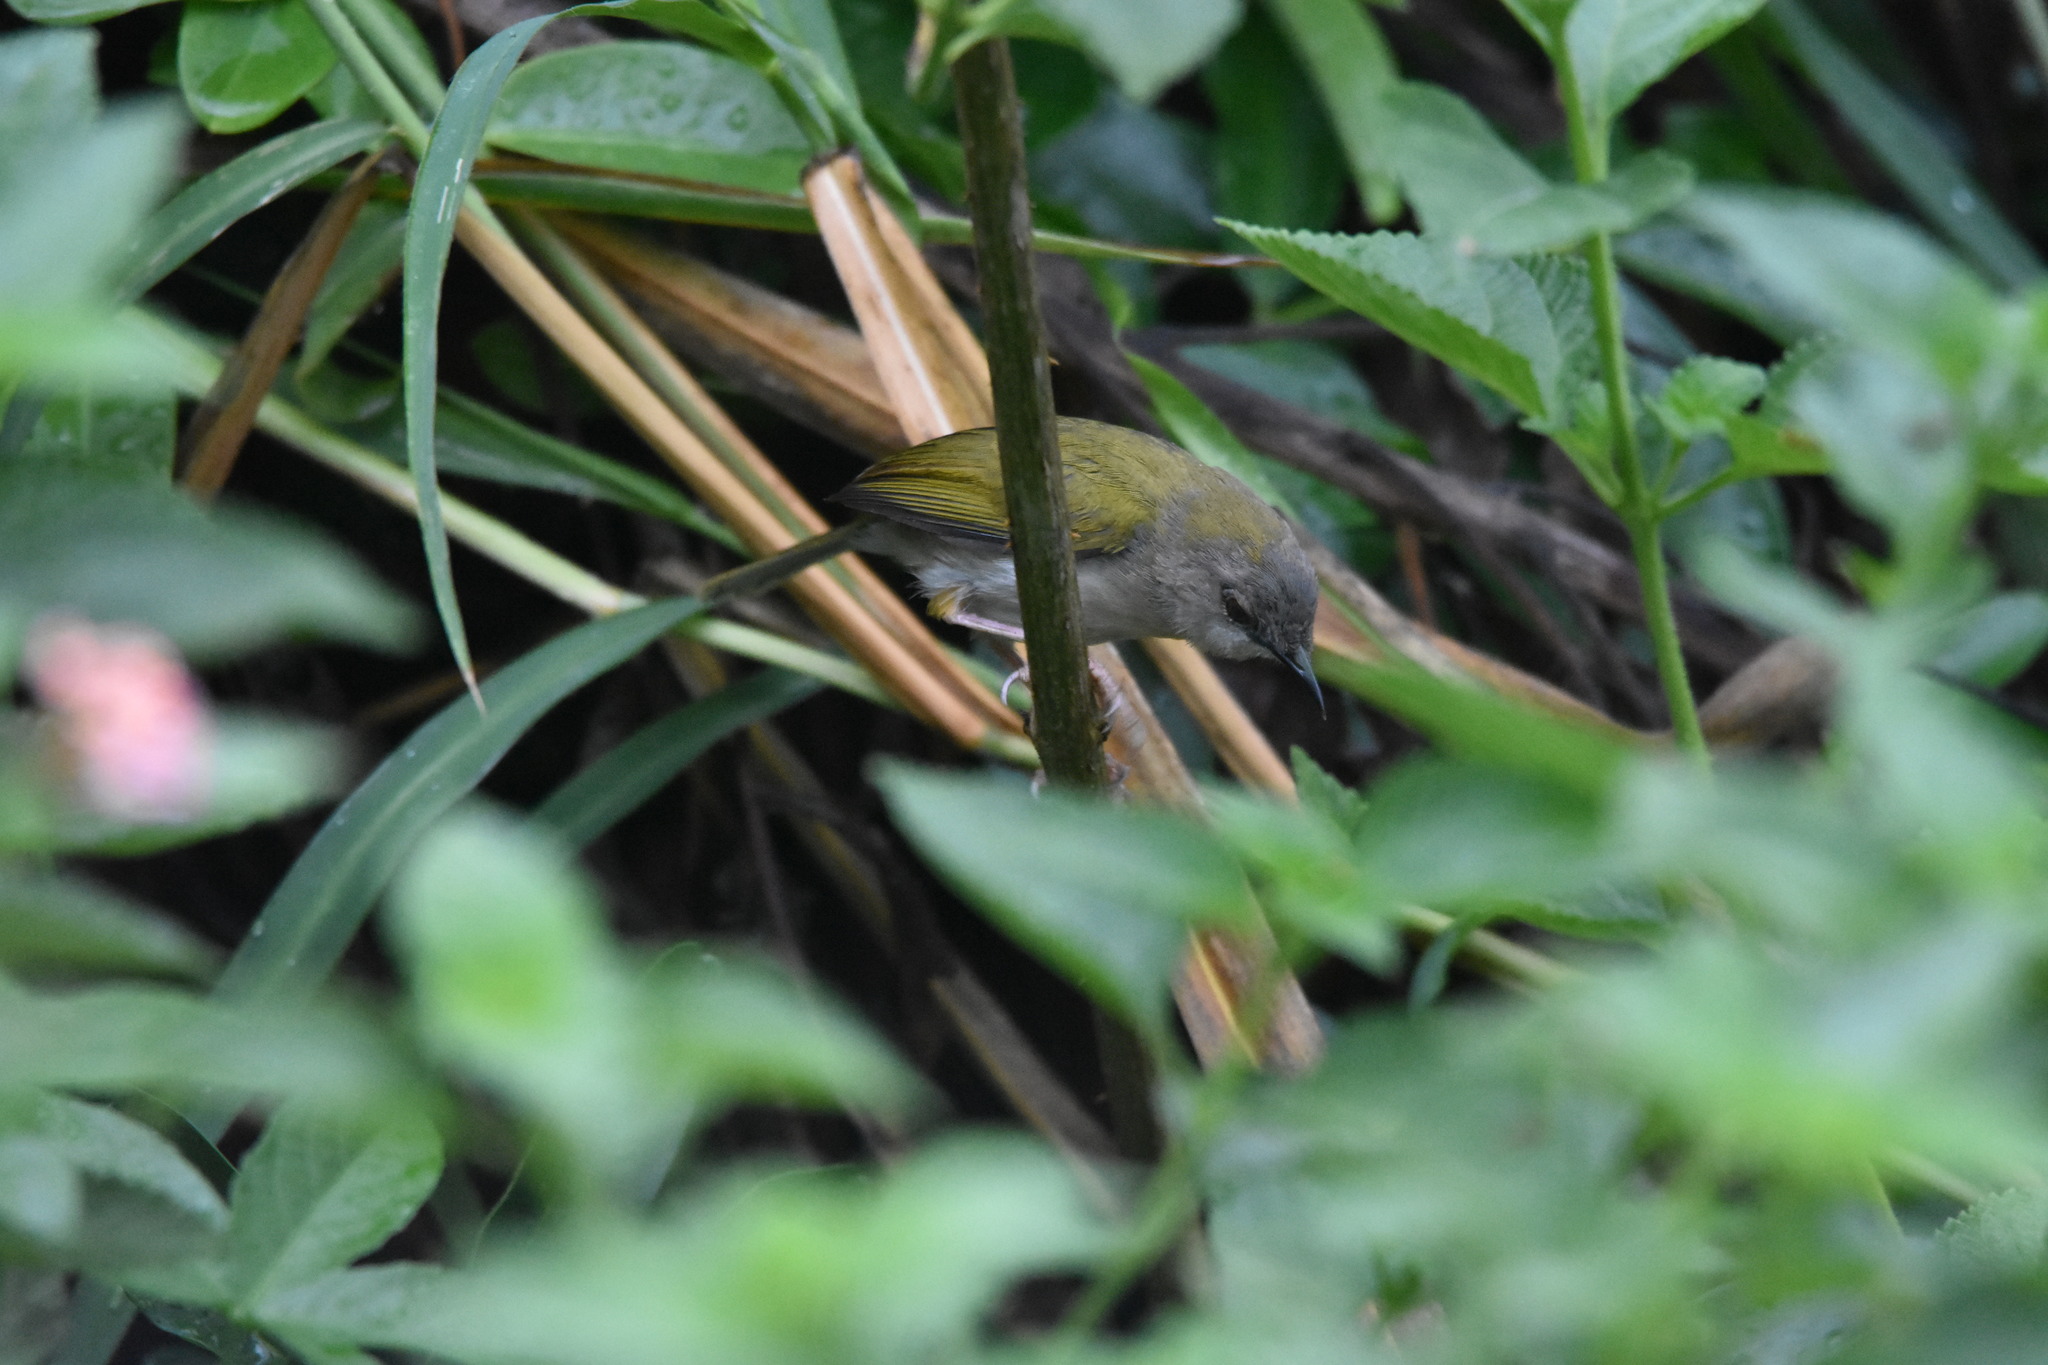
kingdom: Animalia
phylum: Chordata
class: Aves
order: Passeriformes
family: Cisticolidae
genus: Camaroptera
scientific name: Camaroptera brachyura
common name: Green-backed camaroptera
